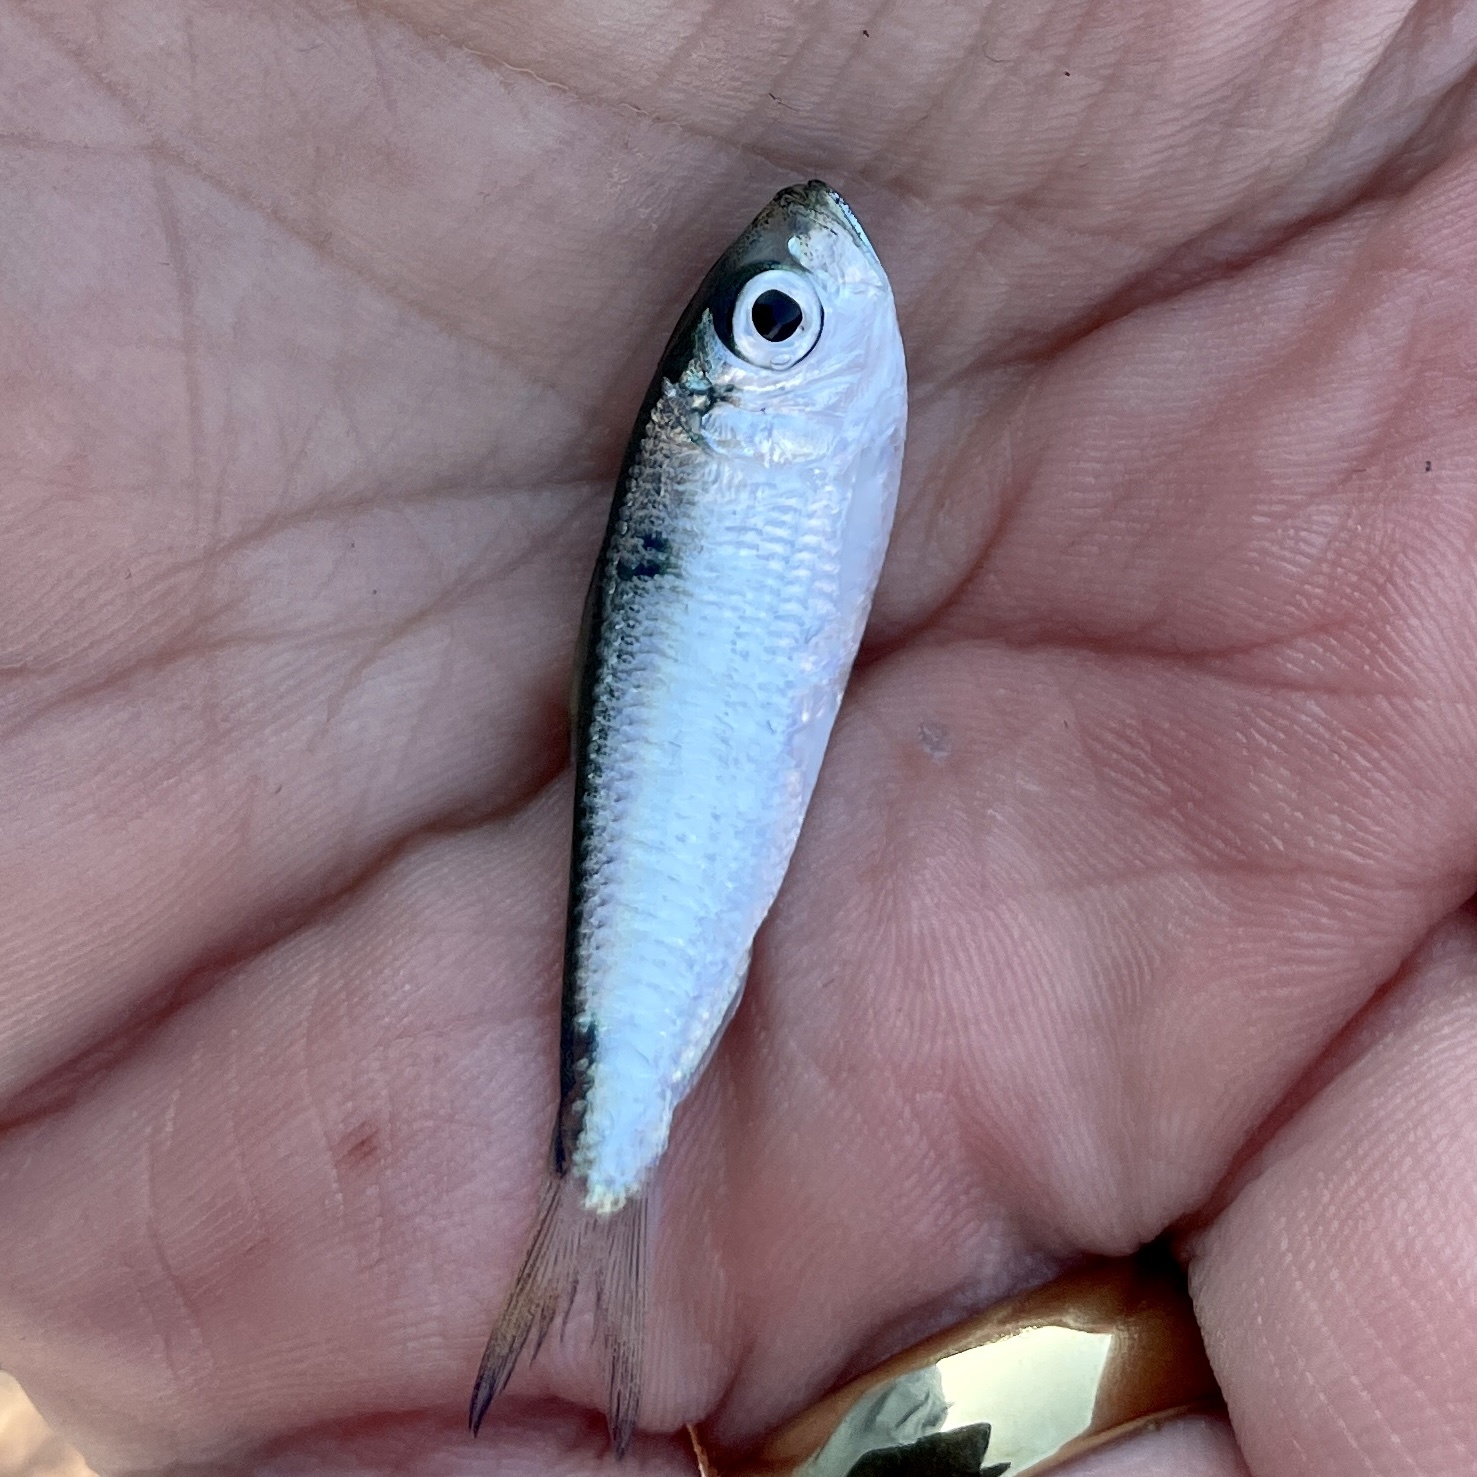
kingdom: Animalia
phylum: Chordata
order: Clupeiformes
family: Clupeidae
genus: Harengula
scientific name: Harengula jaguana
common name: Scaled sardine
